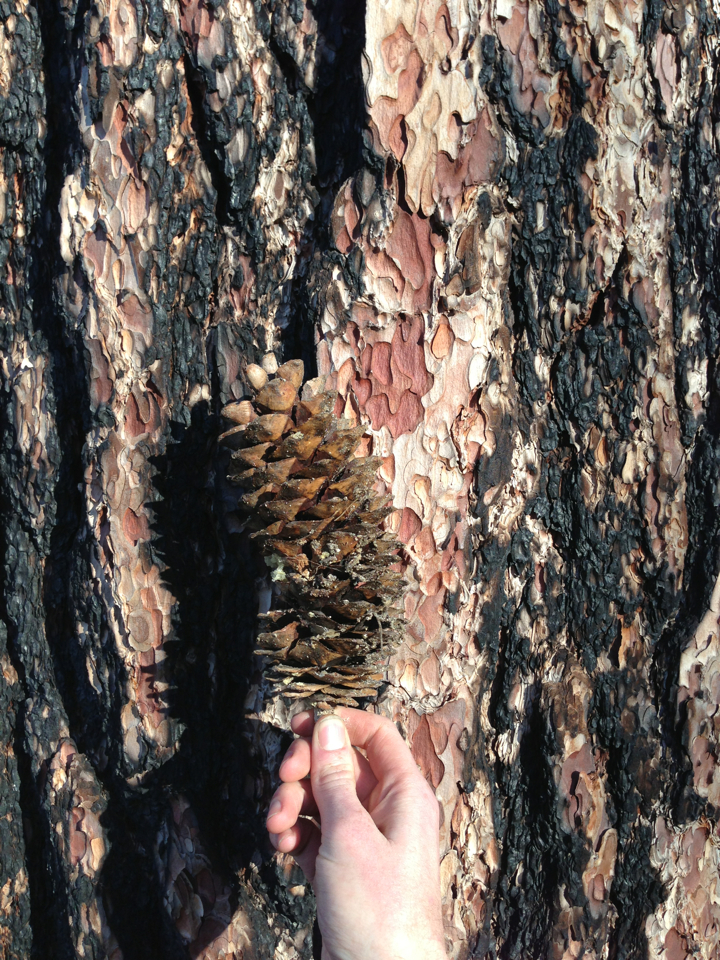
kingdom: Plantae
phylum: Tracheophyta
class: Pinopsida
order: Pinales
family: Pinaceae
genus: Pinus
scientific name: Pinus lambertiana
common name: Sugar pine
